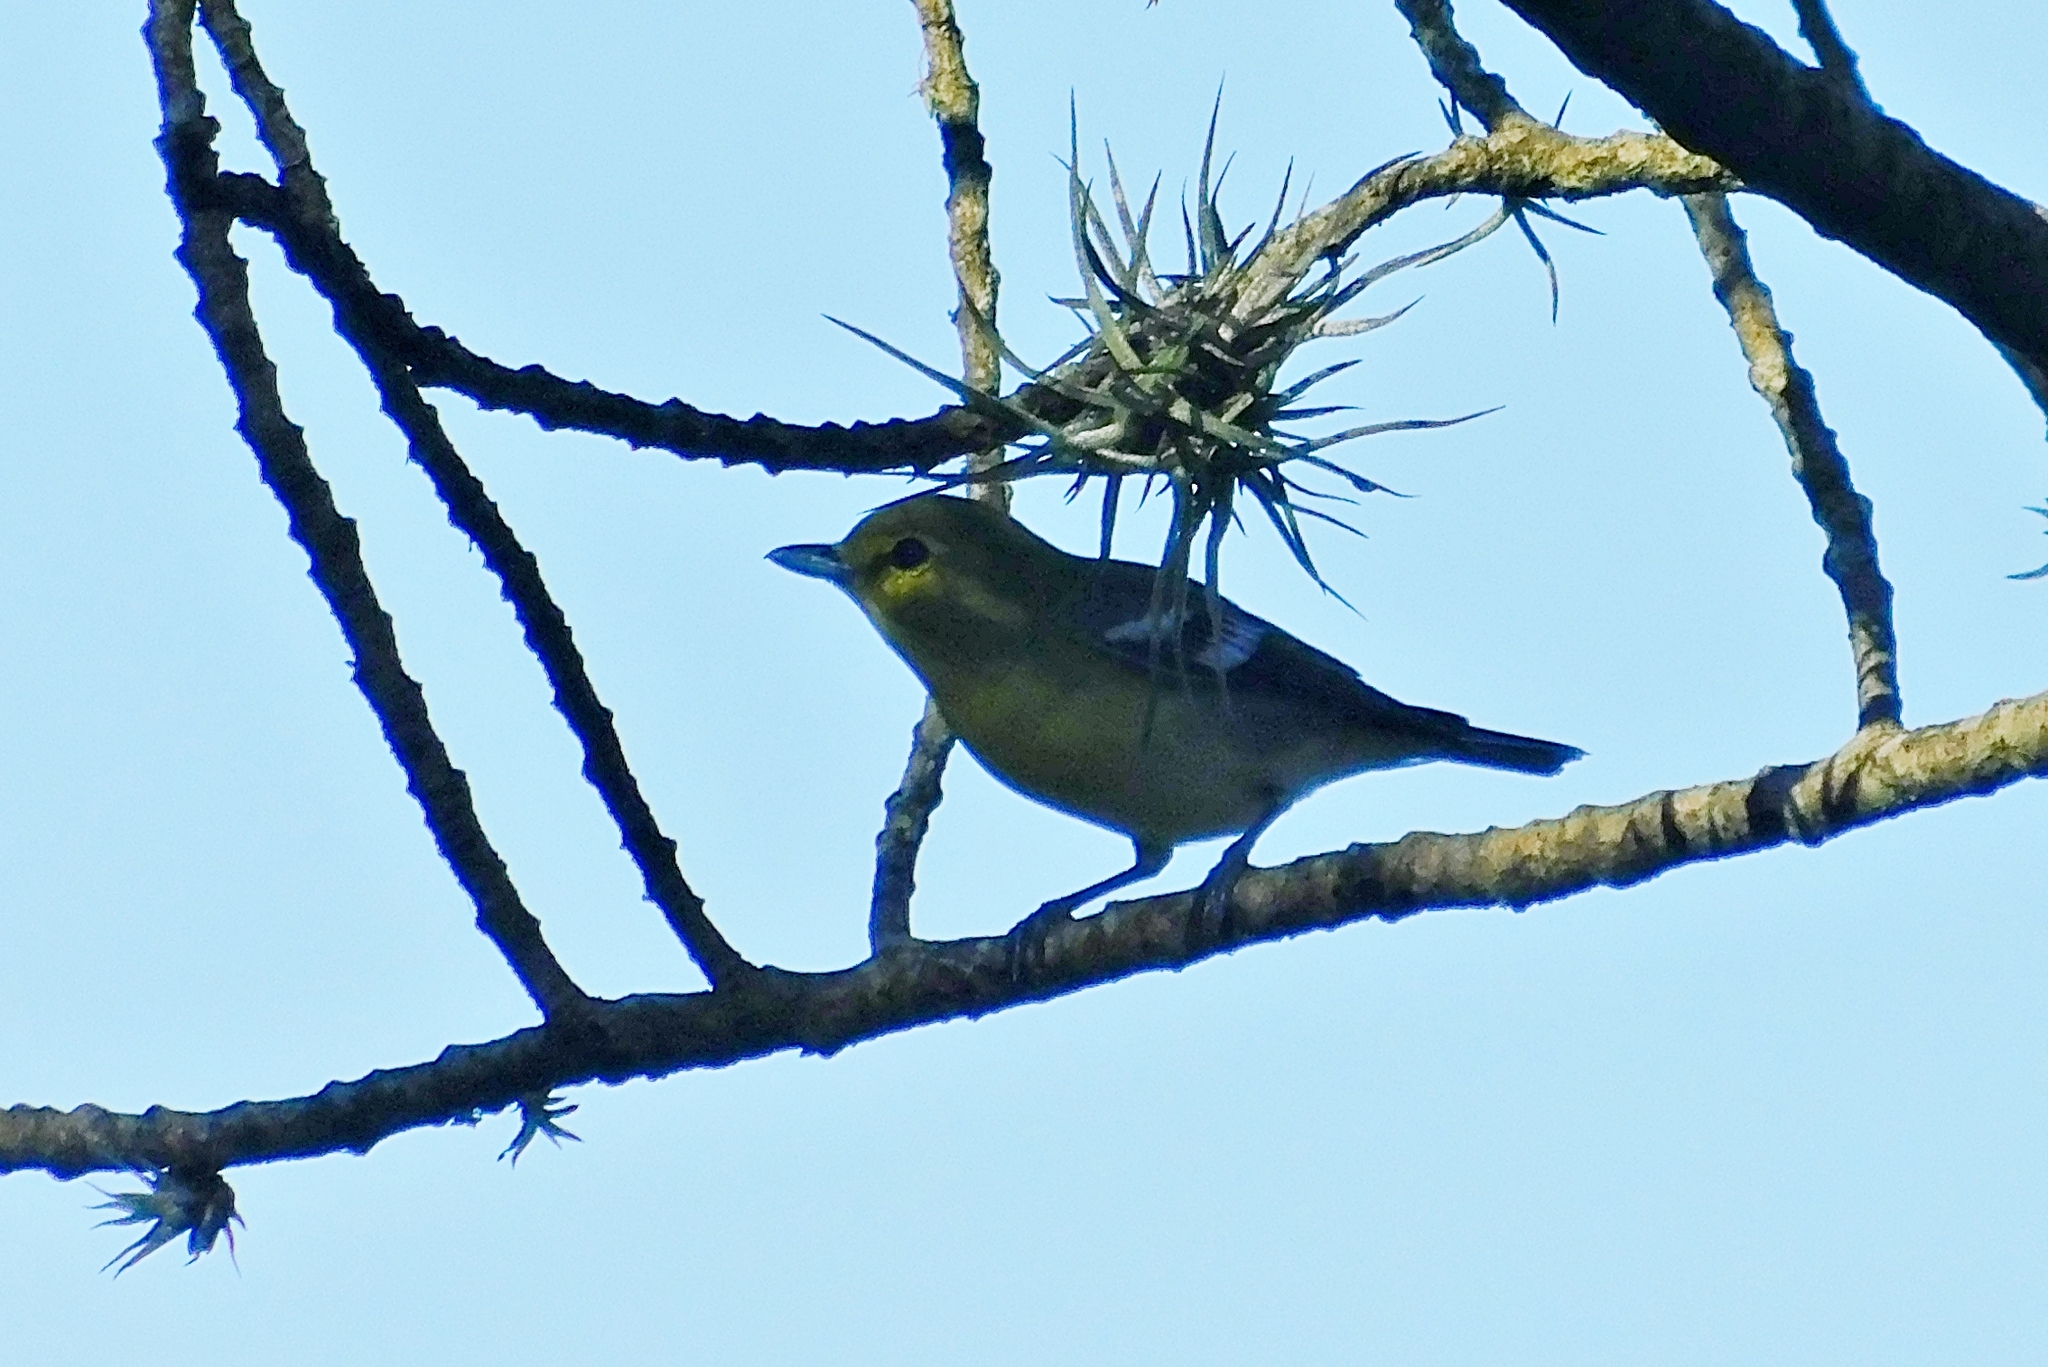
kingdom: Animalia
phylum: Chordata
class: Aves
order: Passeriformes
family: Vireonidae
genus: Vireo
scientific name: Vireo flavifrons
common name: Yellow-throated vireo
